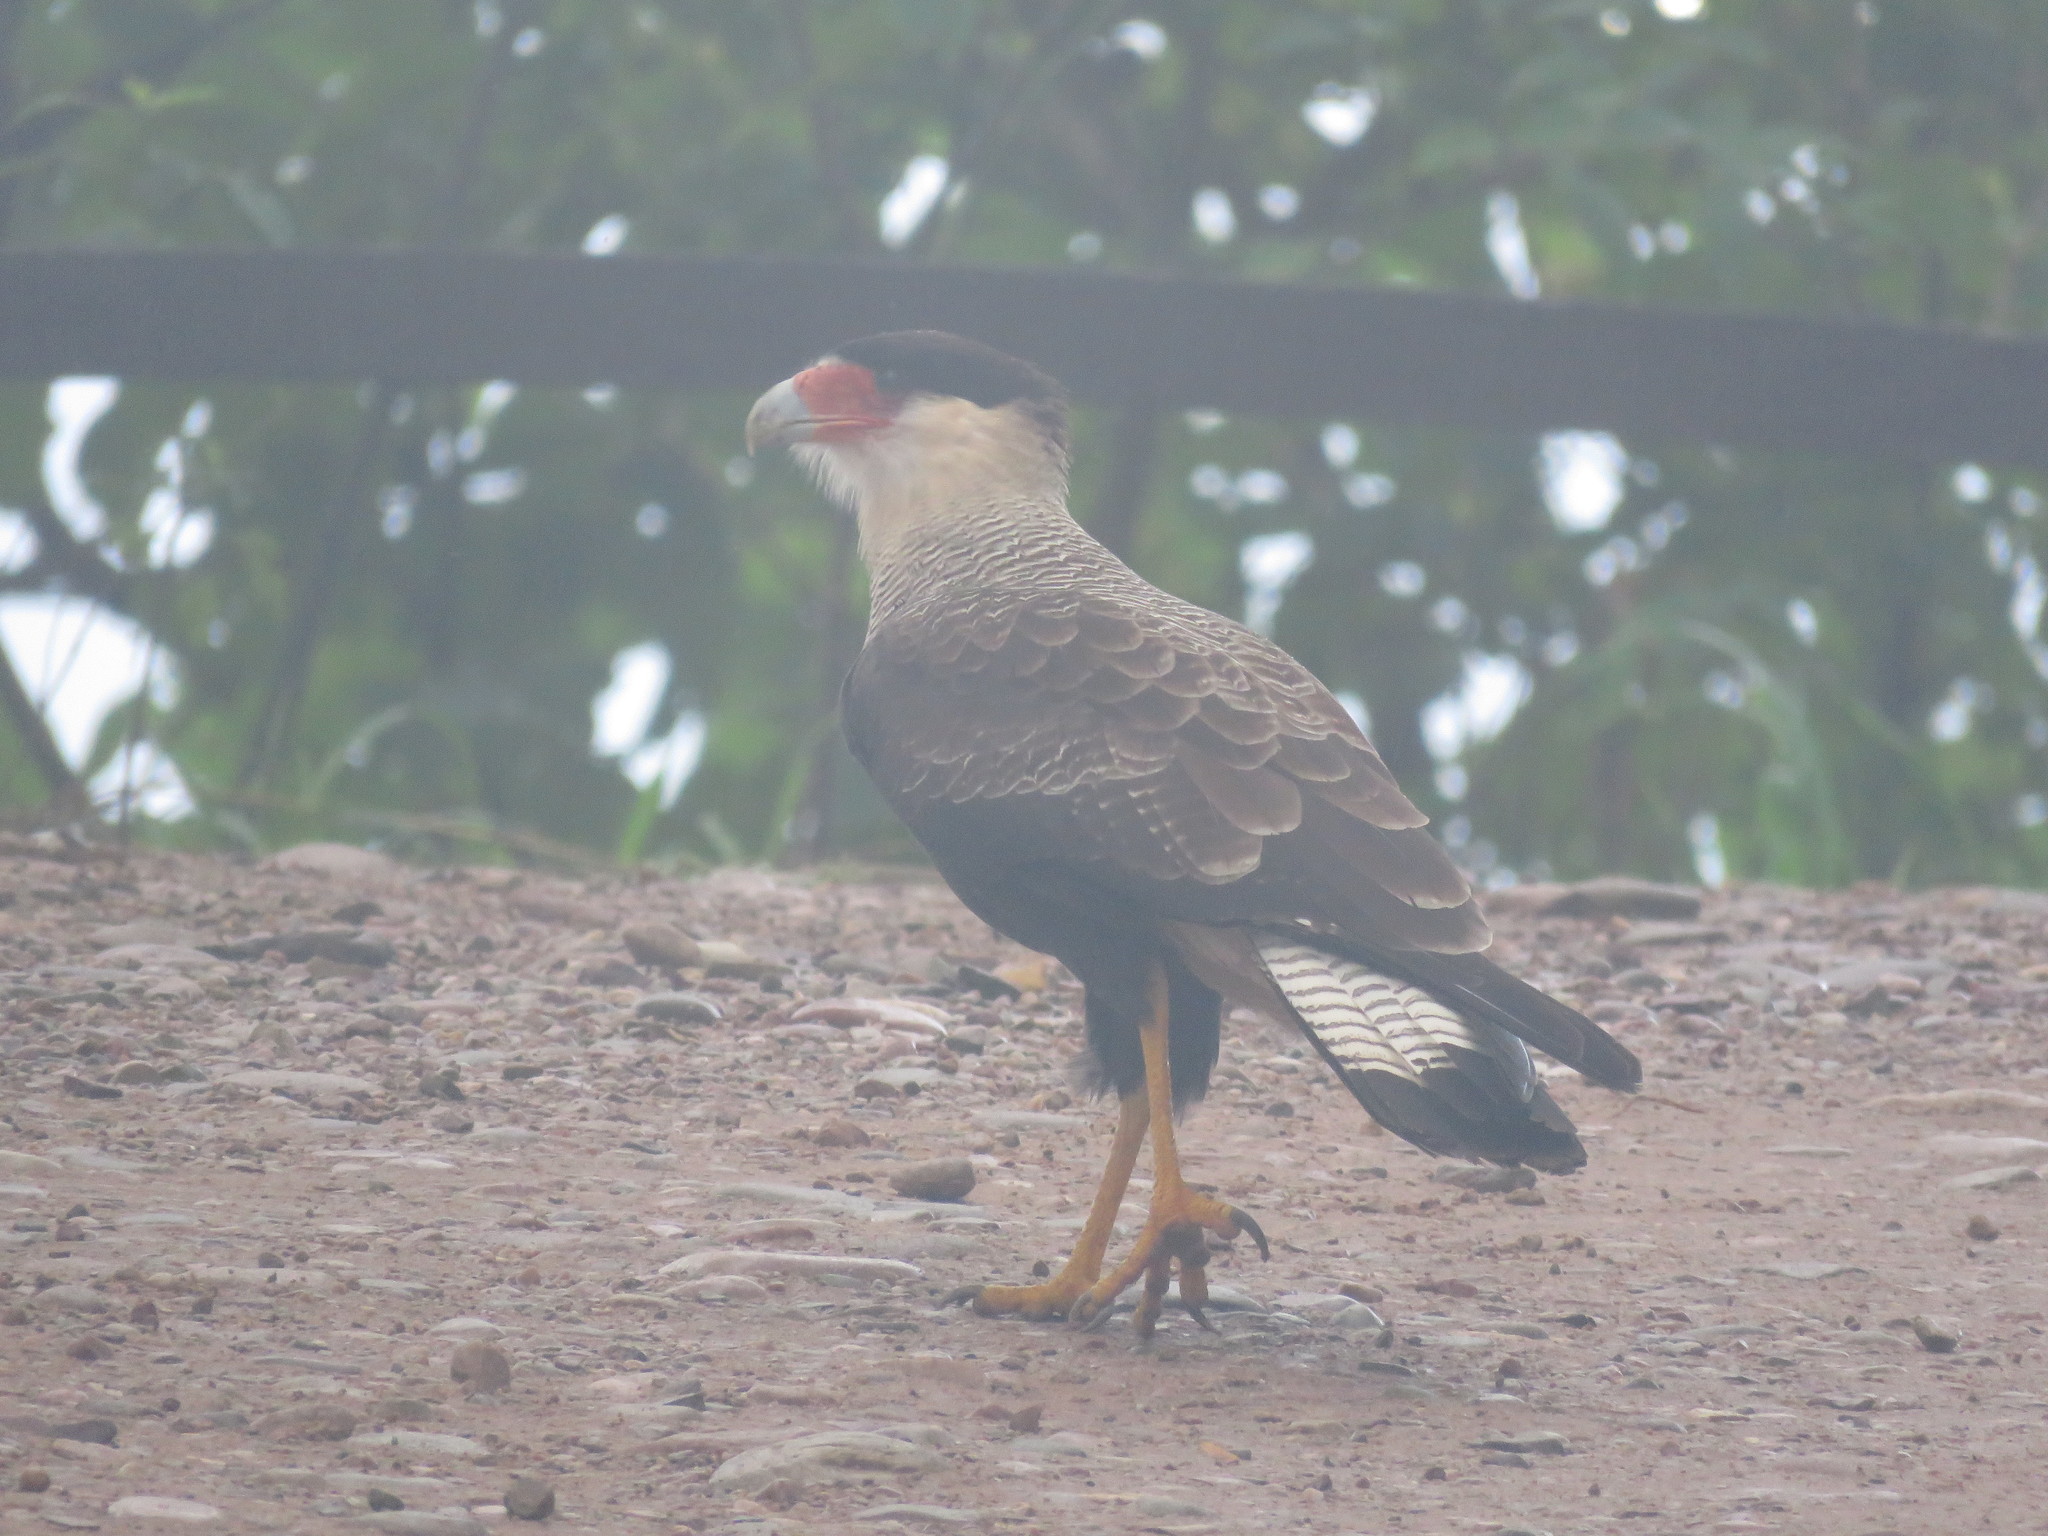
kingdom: Animalia
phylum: Chordata
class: Aves
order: Falconiformes
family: Falconidae
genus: Caracara
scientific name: Caracara plancus
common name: Southern caracara
